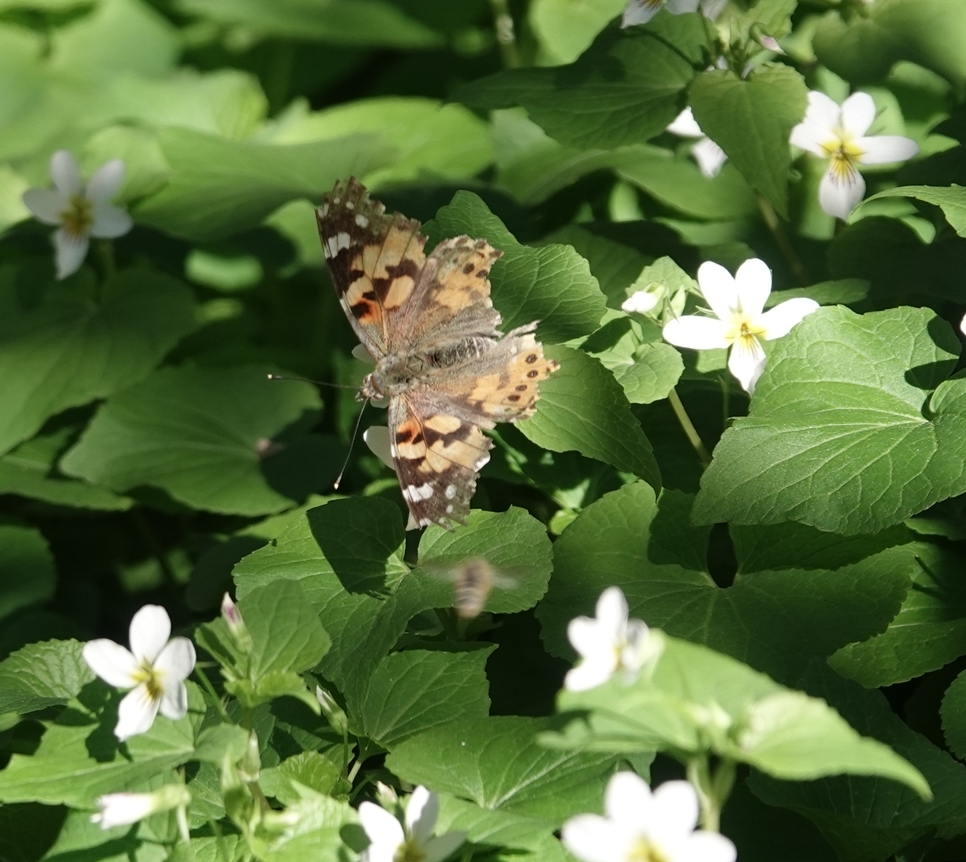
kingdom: Animalia
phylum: Arthropoda
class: Insecta
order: Lepidoptera
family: Nymphalidae
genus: Vanessa
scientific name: Vanessa cardui
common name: Painted lady
